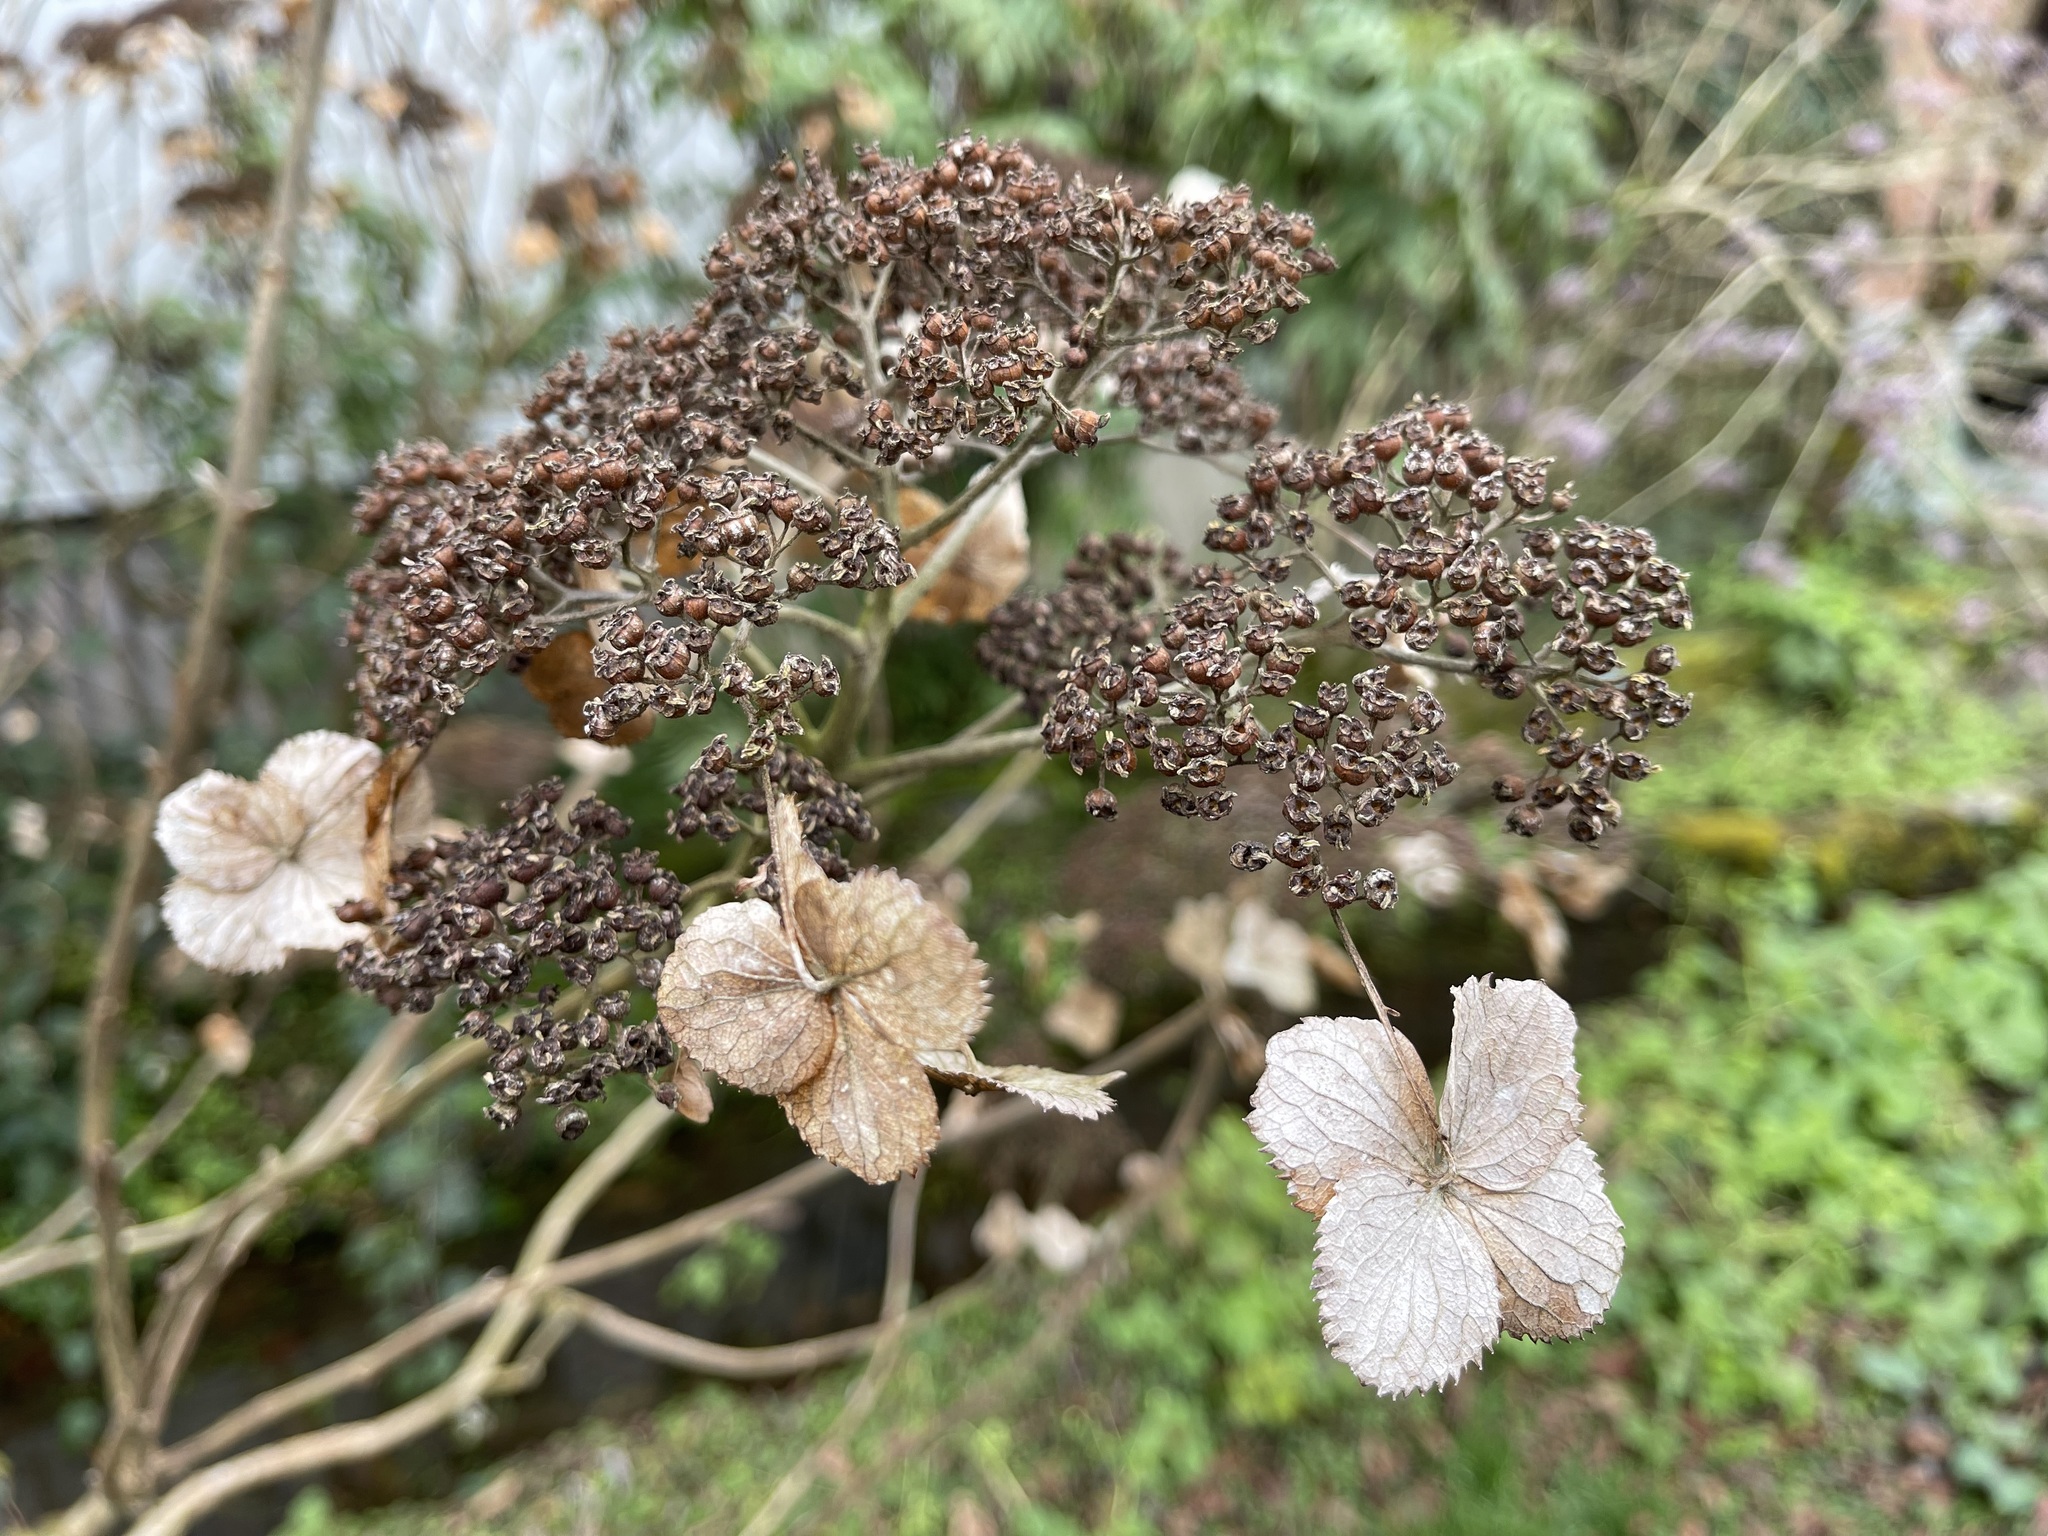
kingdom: Plantae
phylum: Tracheophyta
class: Magnoliopsida
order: Cornales
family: Hydrangeaceae
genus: Hydrangea
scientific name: Hydrangea aspera
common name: Rough-leaf hydrangea
